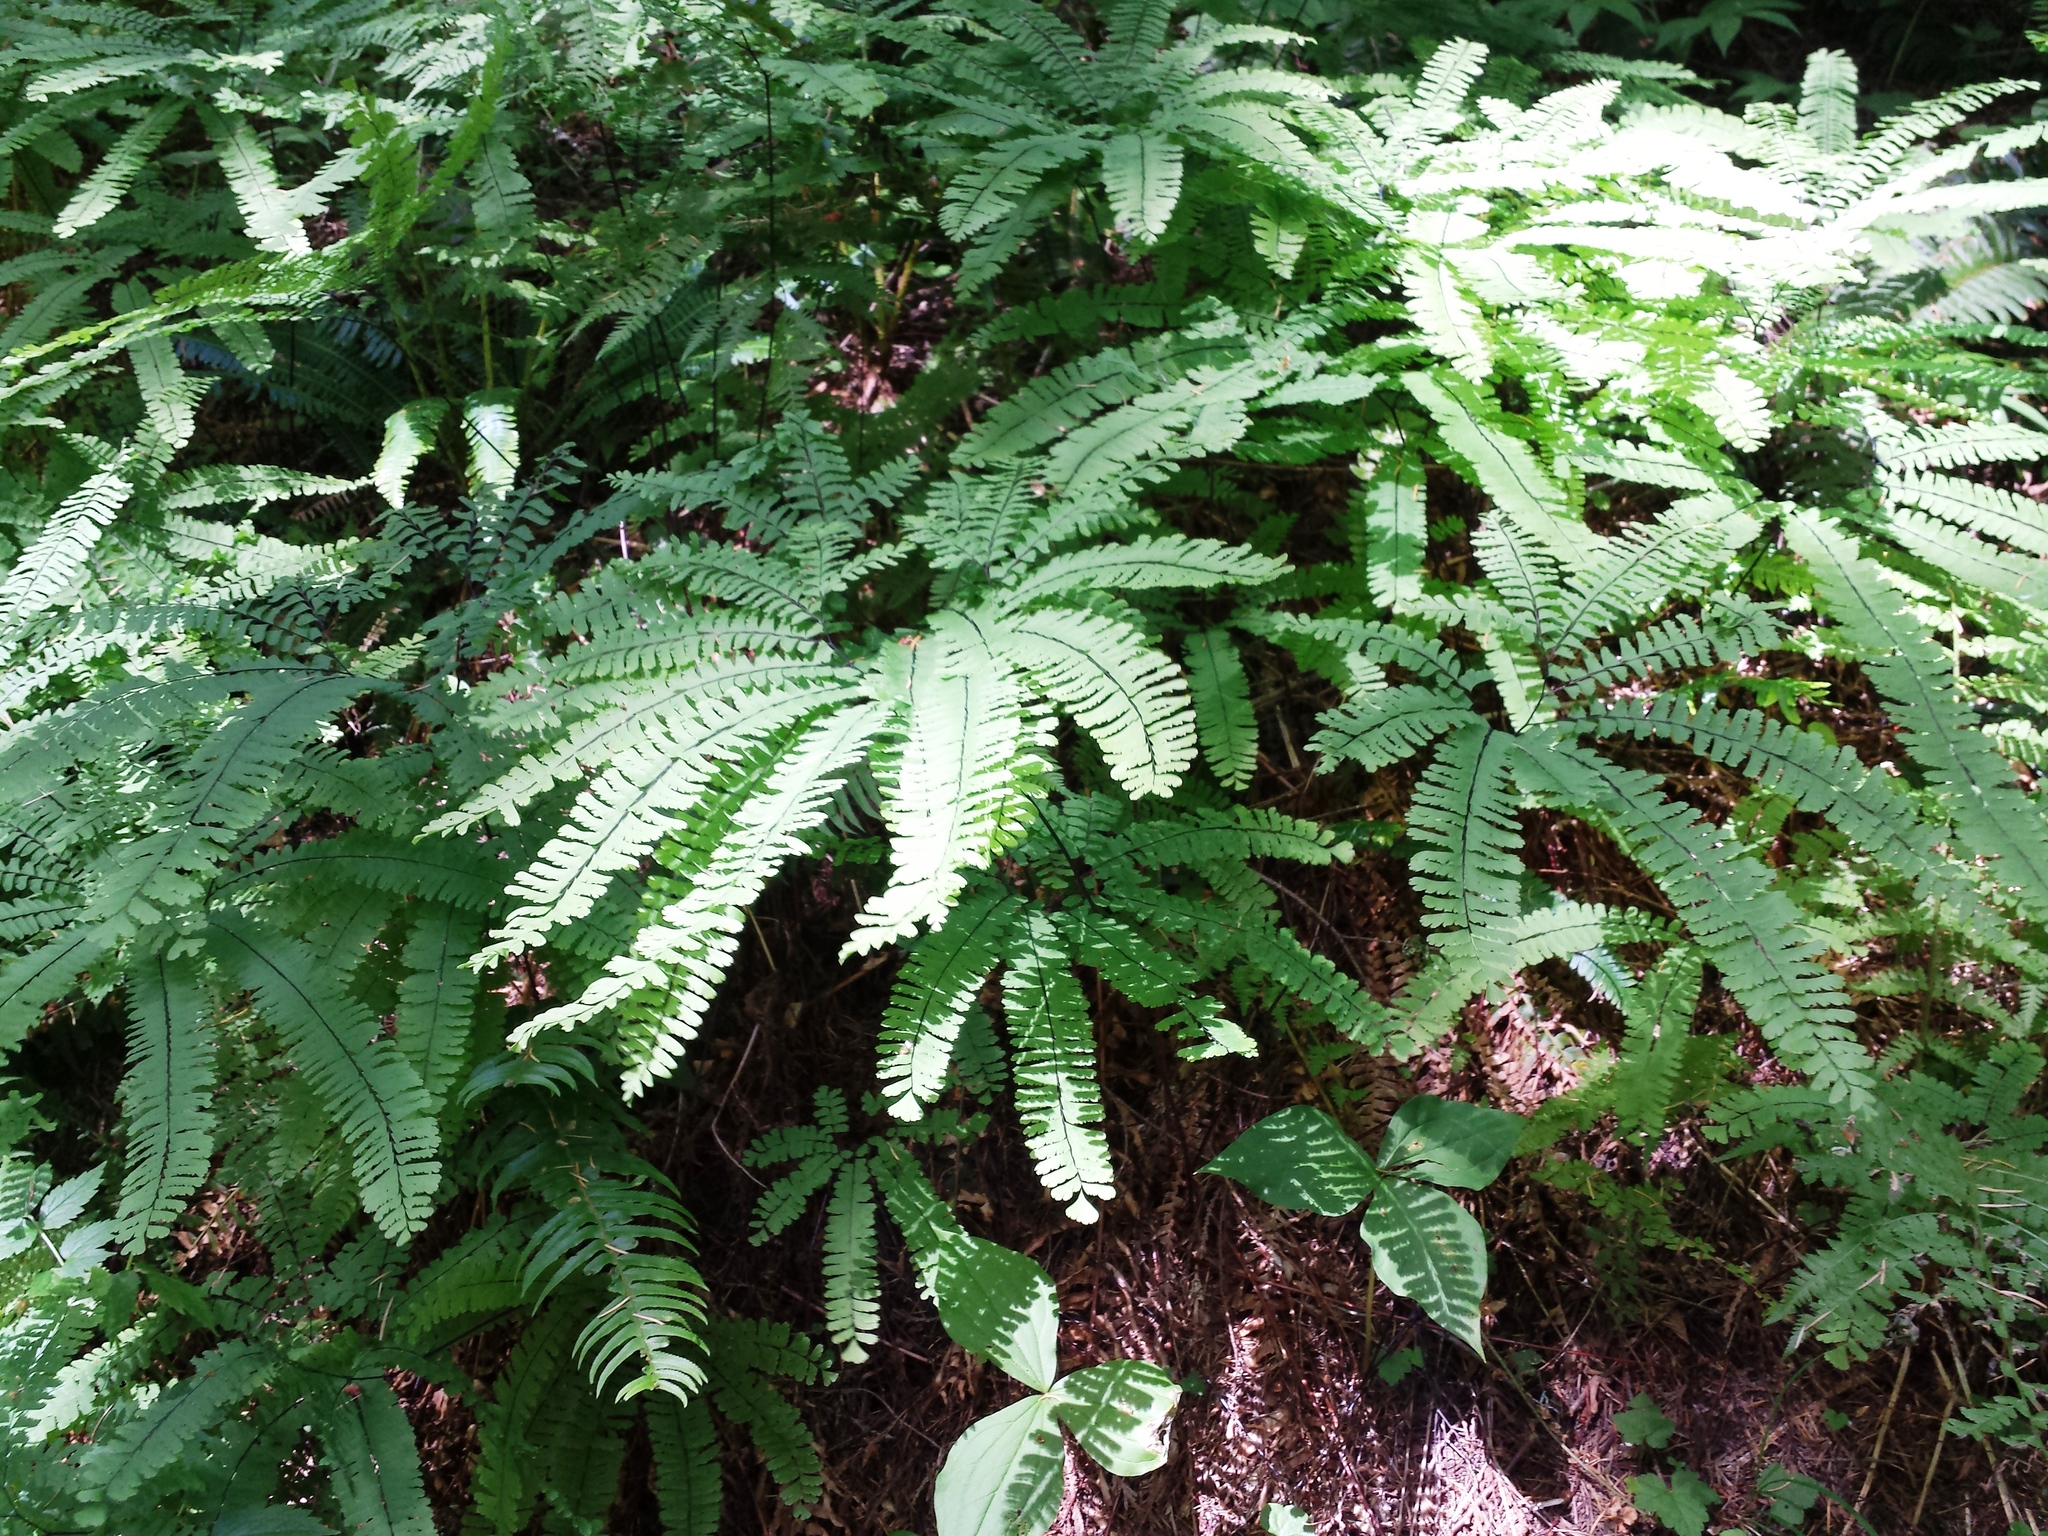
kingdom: Plantae
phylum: Tracheophyta
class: Polypodiopsida
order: Polypodiales
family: Pteridaceae
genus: Adiantum
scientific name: Adiantum aleuticum
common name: Aleutian maidenhair fern
